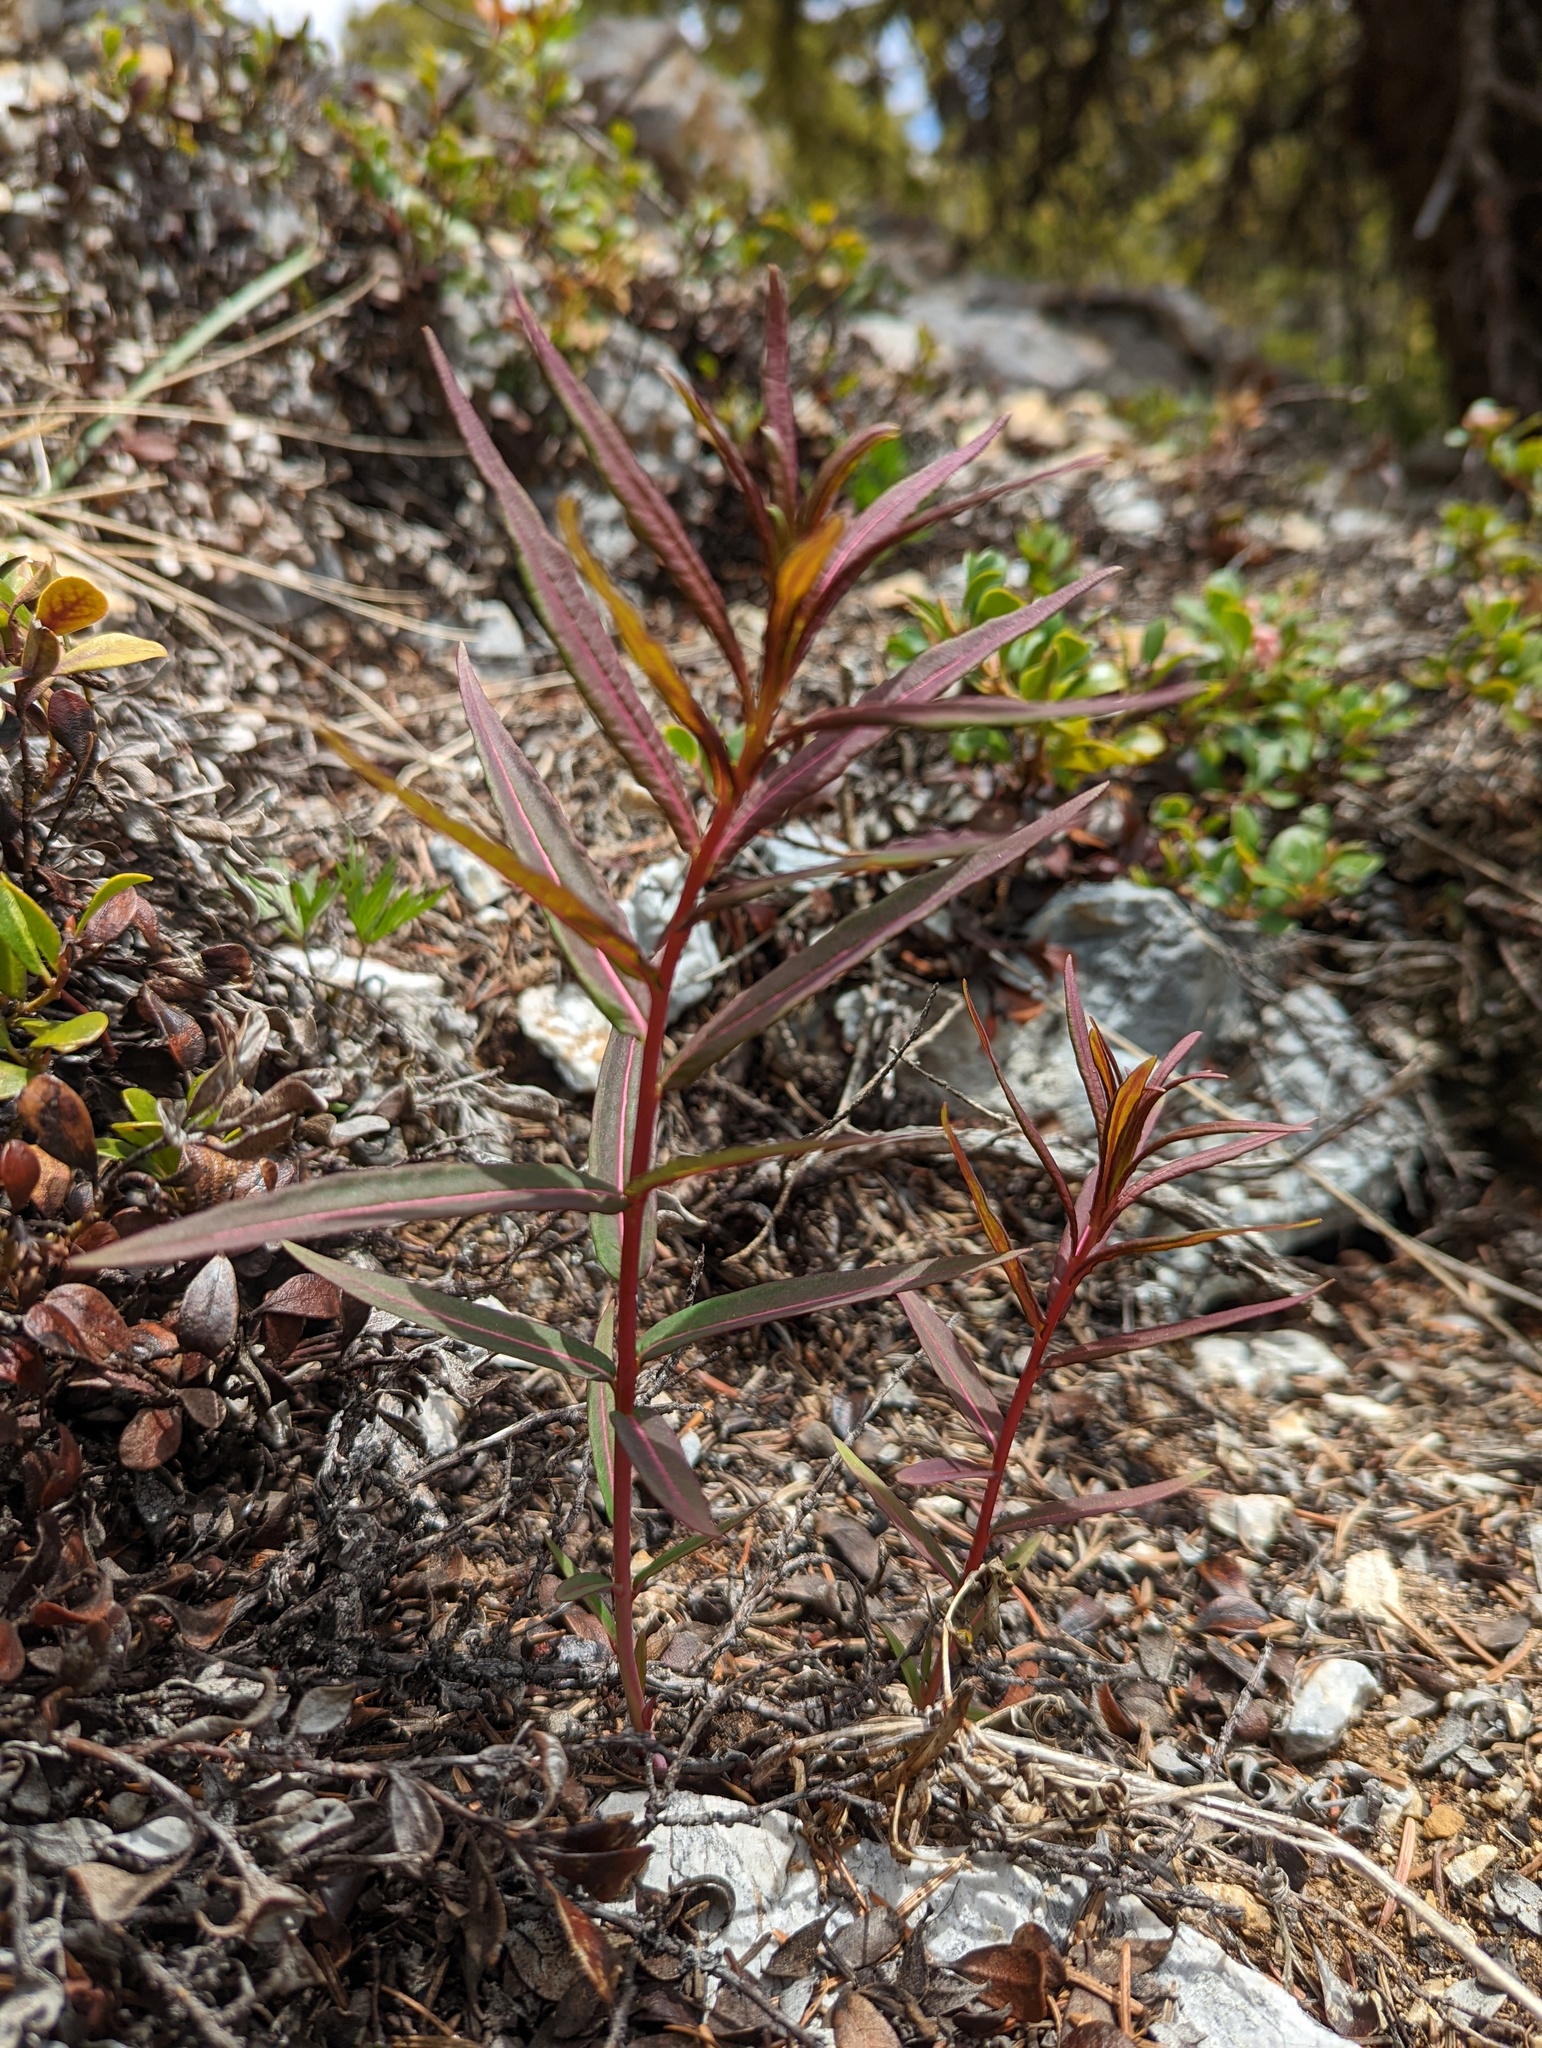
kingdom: Plantae
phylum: Tracheophyta
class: Magnoliopsida
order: Myrtales
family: Onagraceae
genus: Chamaenerion
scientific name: Chamaenerion angustifolium
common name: Fireweed
